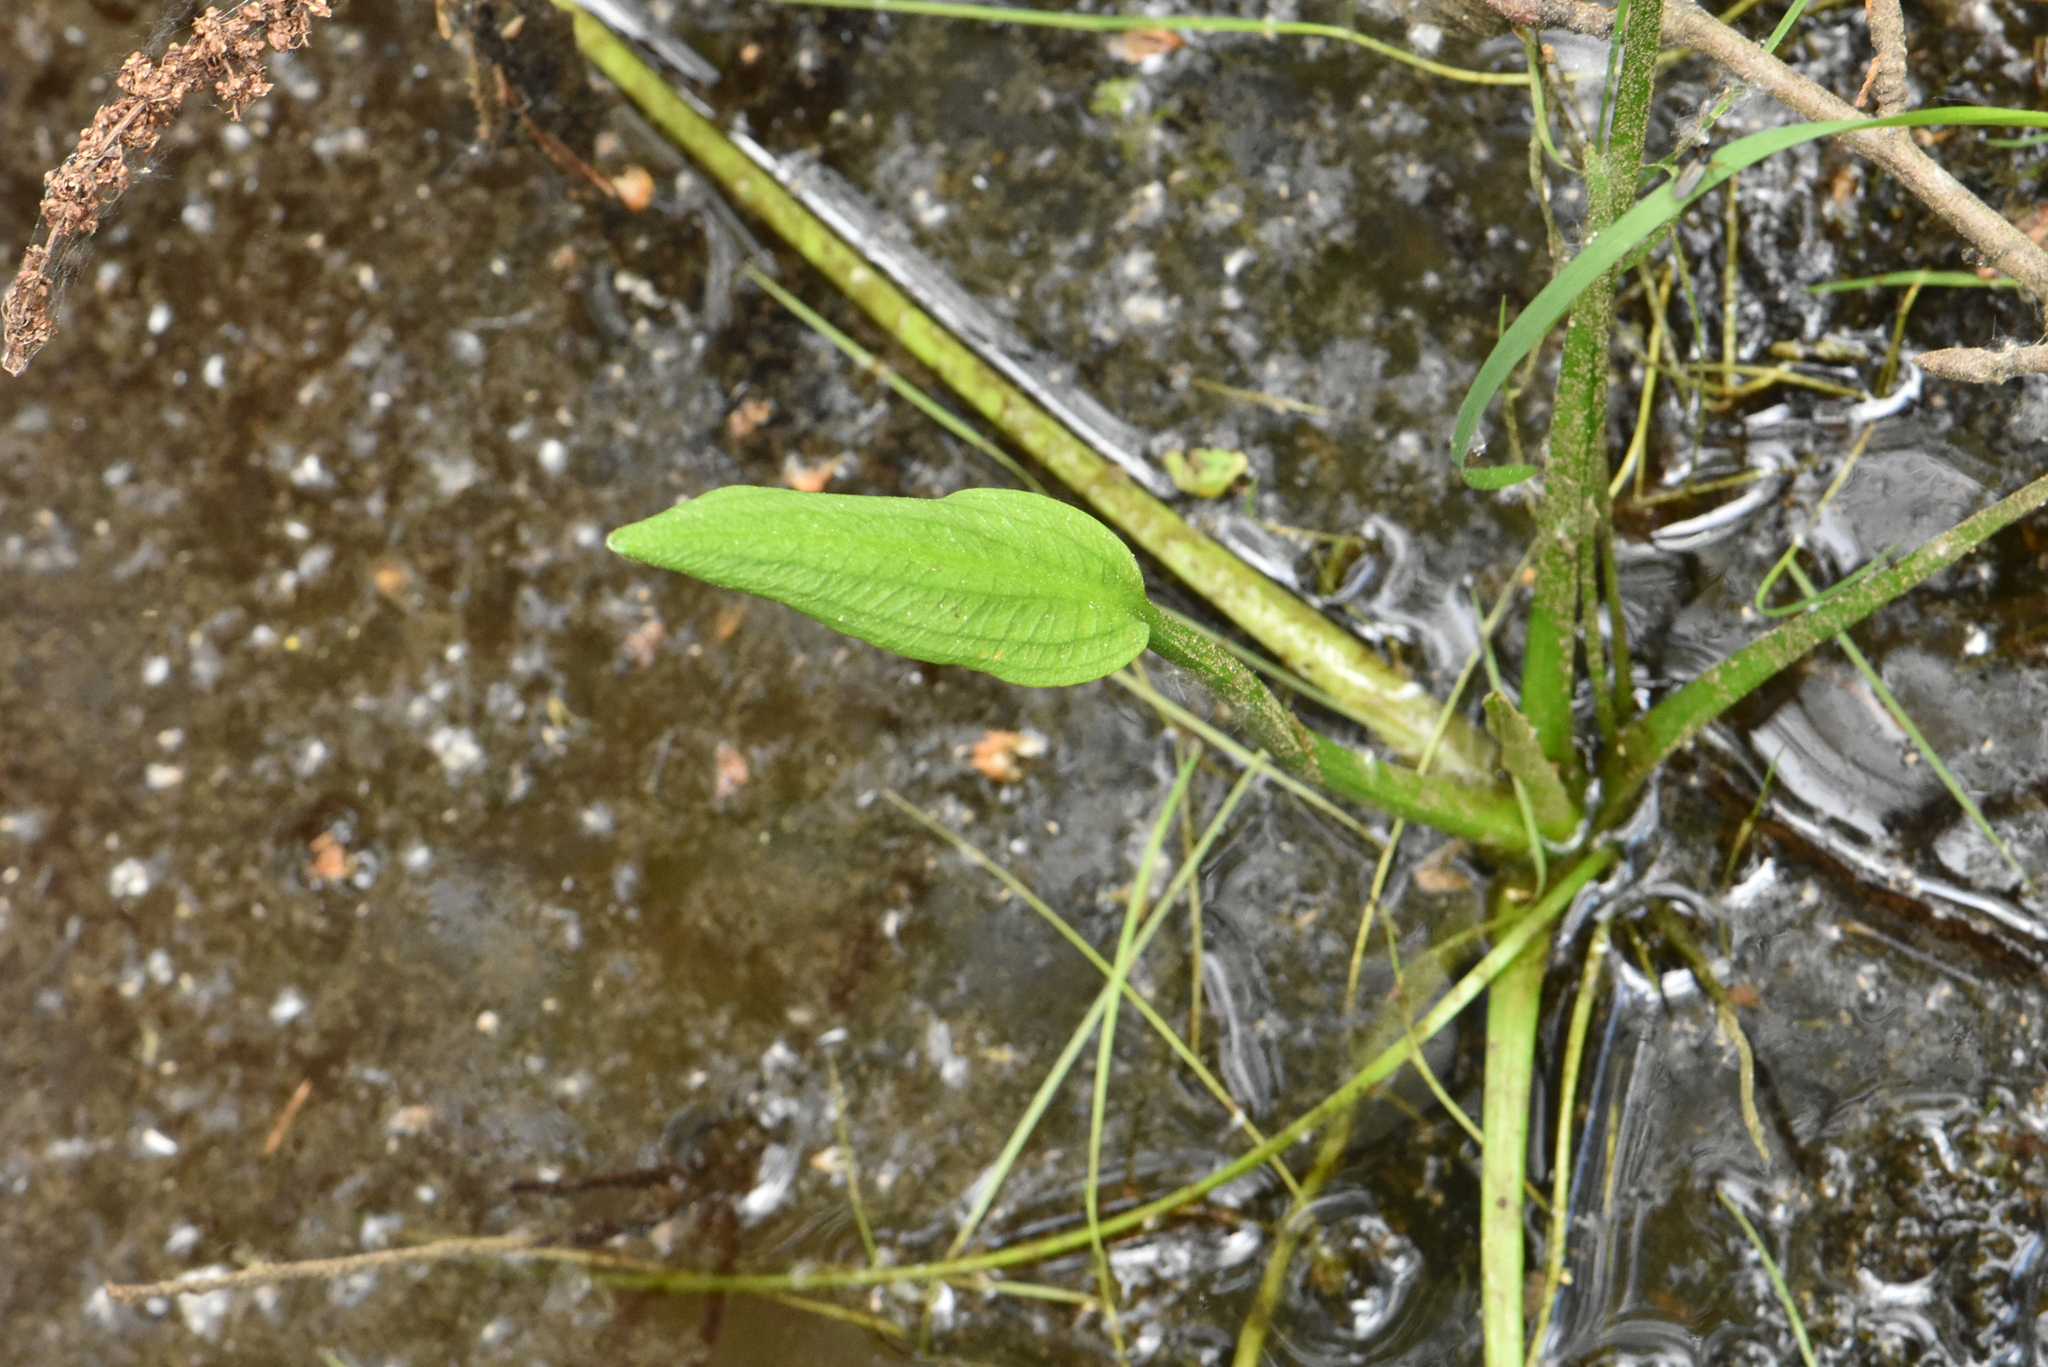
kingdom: Plantae
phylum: Tracheophyta
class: Liliopsida
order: Alismatales
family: Alismataceae
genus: Alisma
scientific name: Alisma plantago-aquatica
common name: Water-plantain
